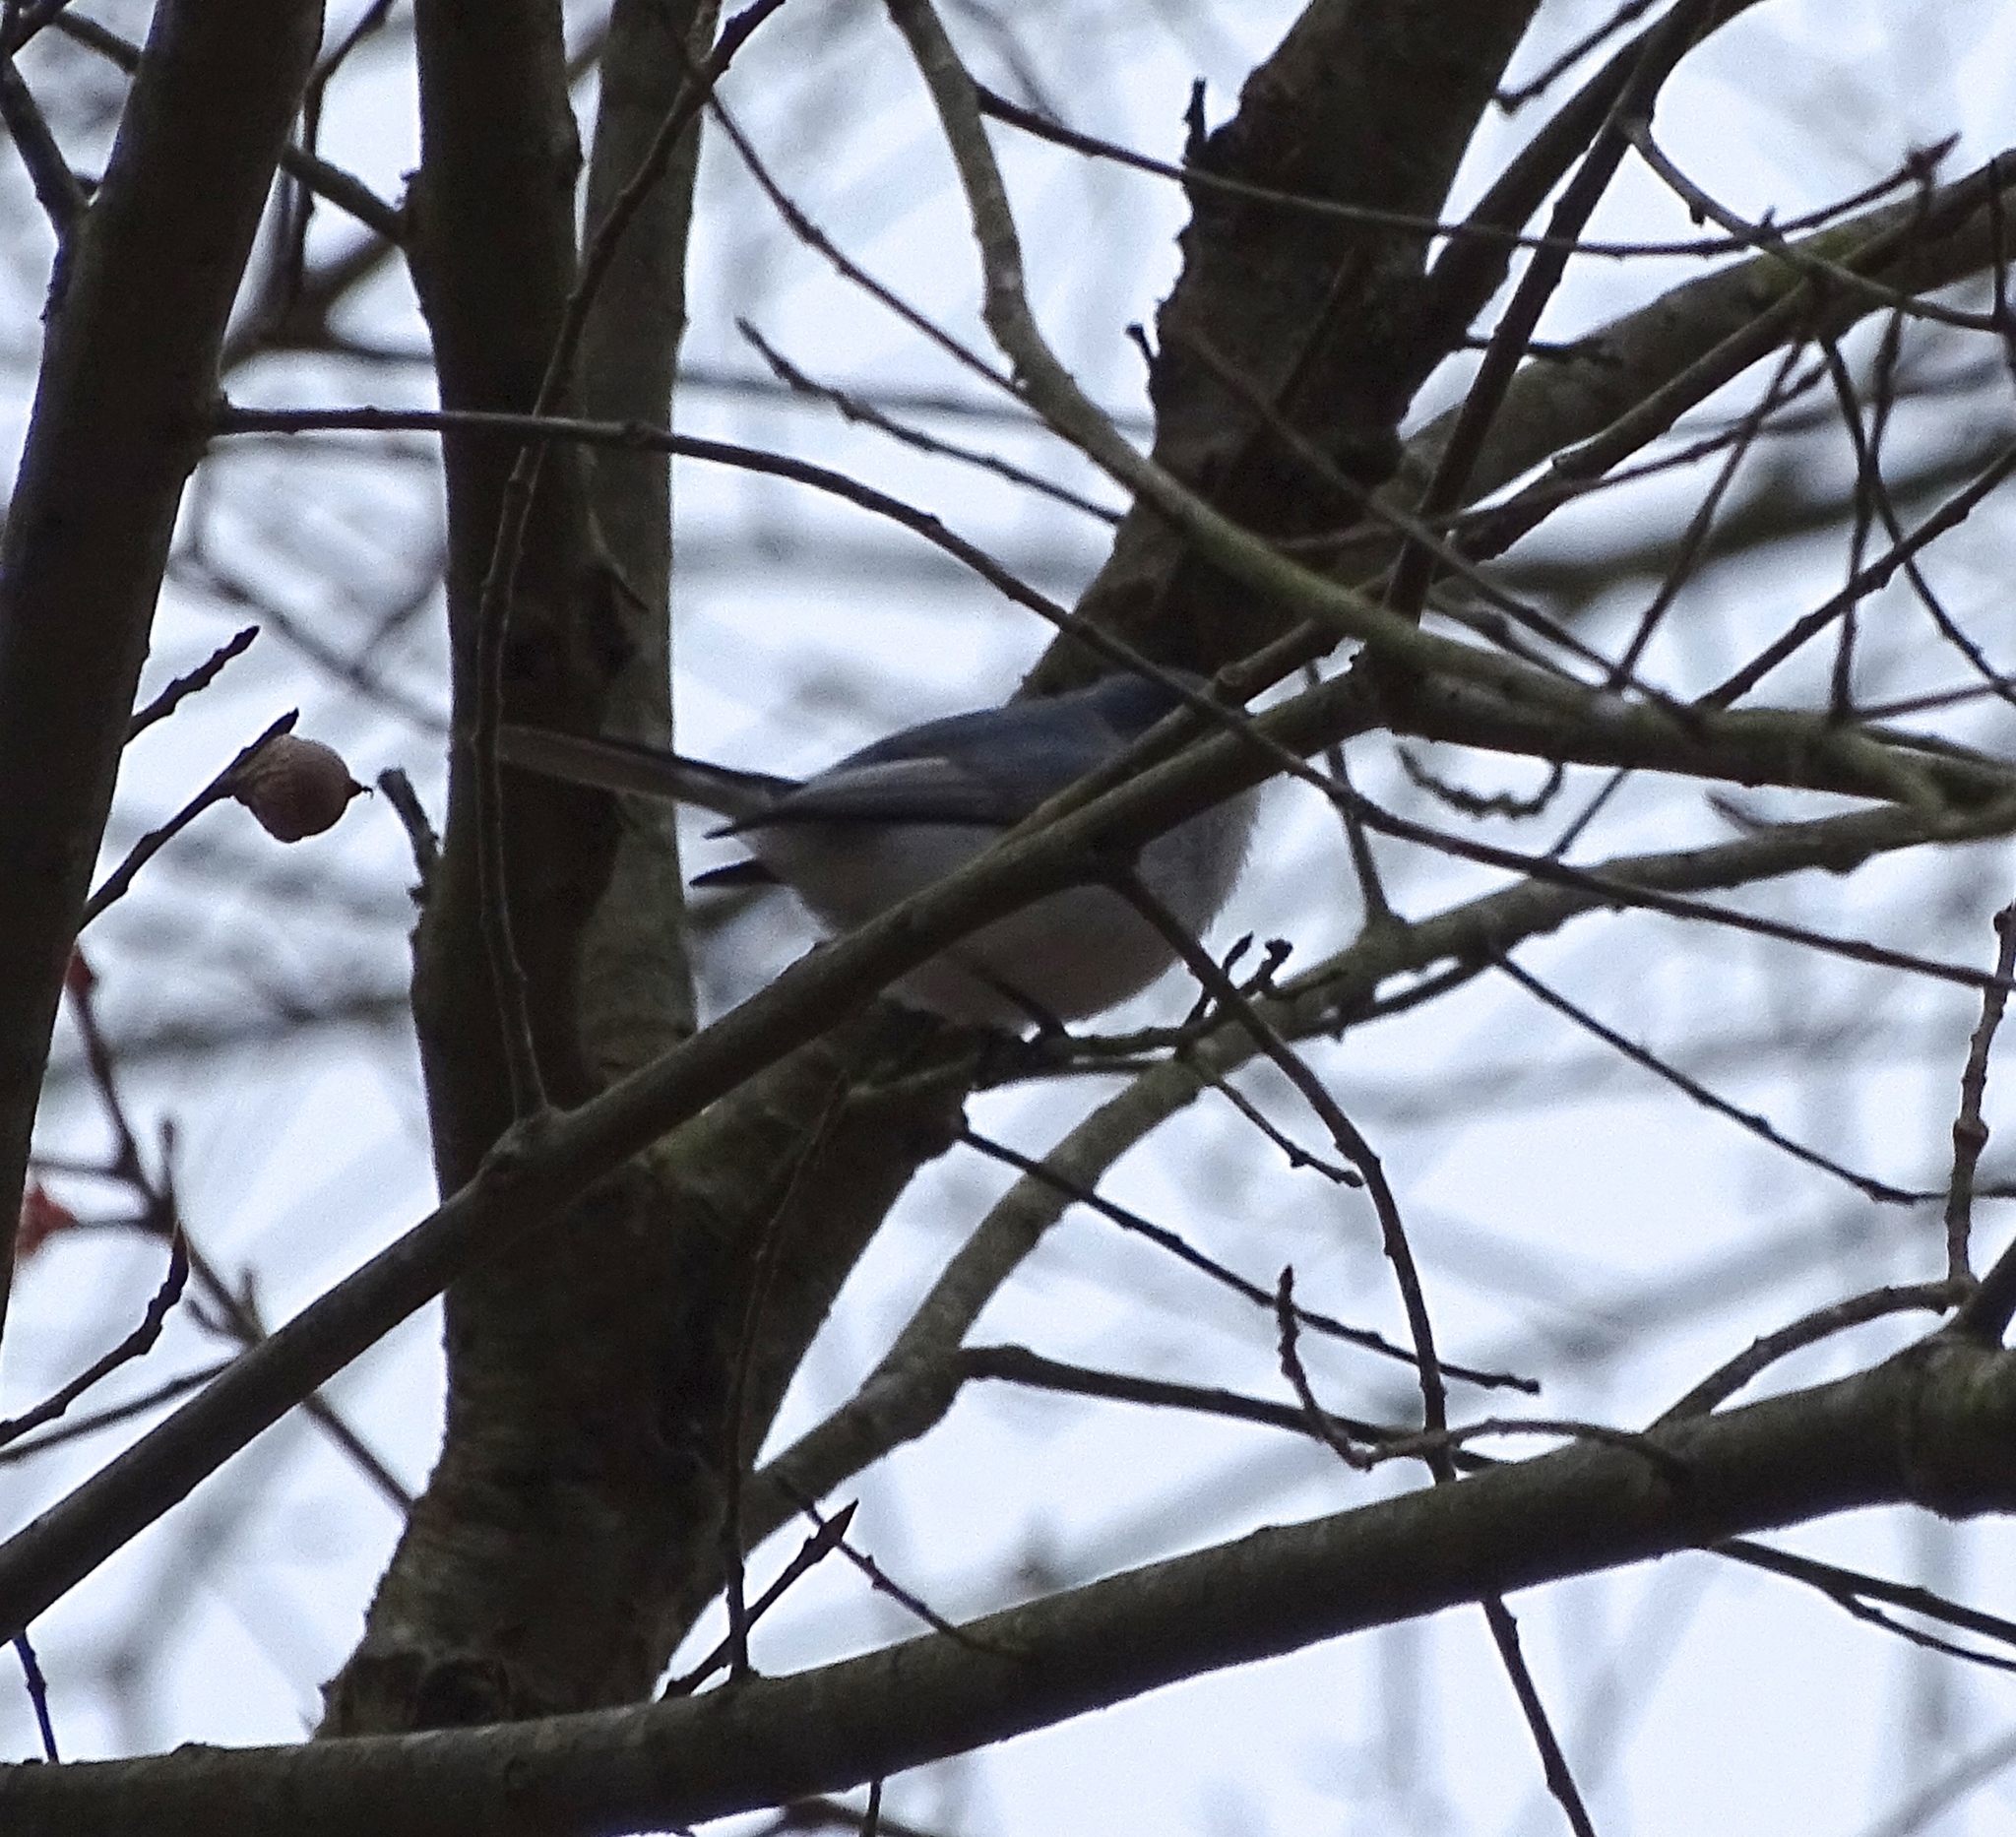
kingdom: Animalia
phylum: Chordata
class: Aves
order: Passeriformes
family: Polioptilidae
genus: Polioptila
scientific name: Polioptila caerulea
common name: Blue-gray gnatcatcher
